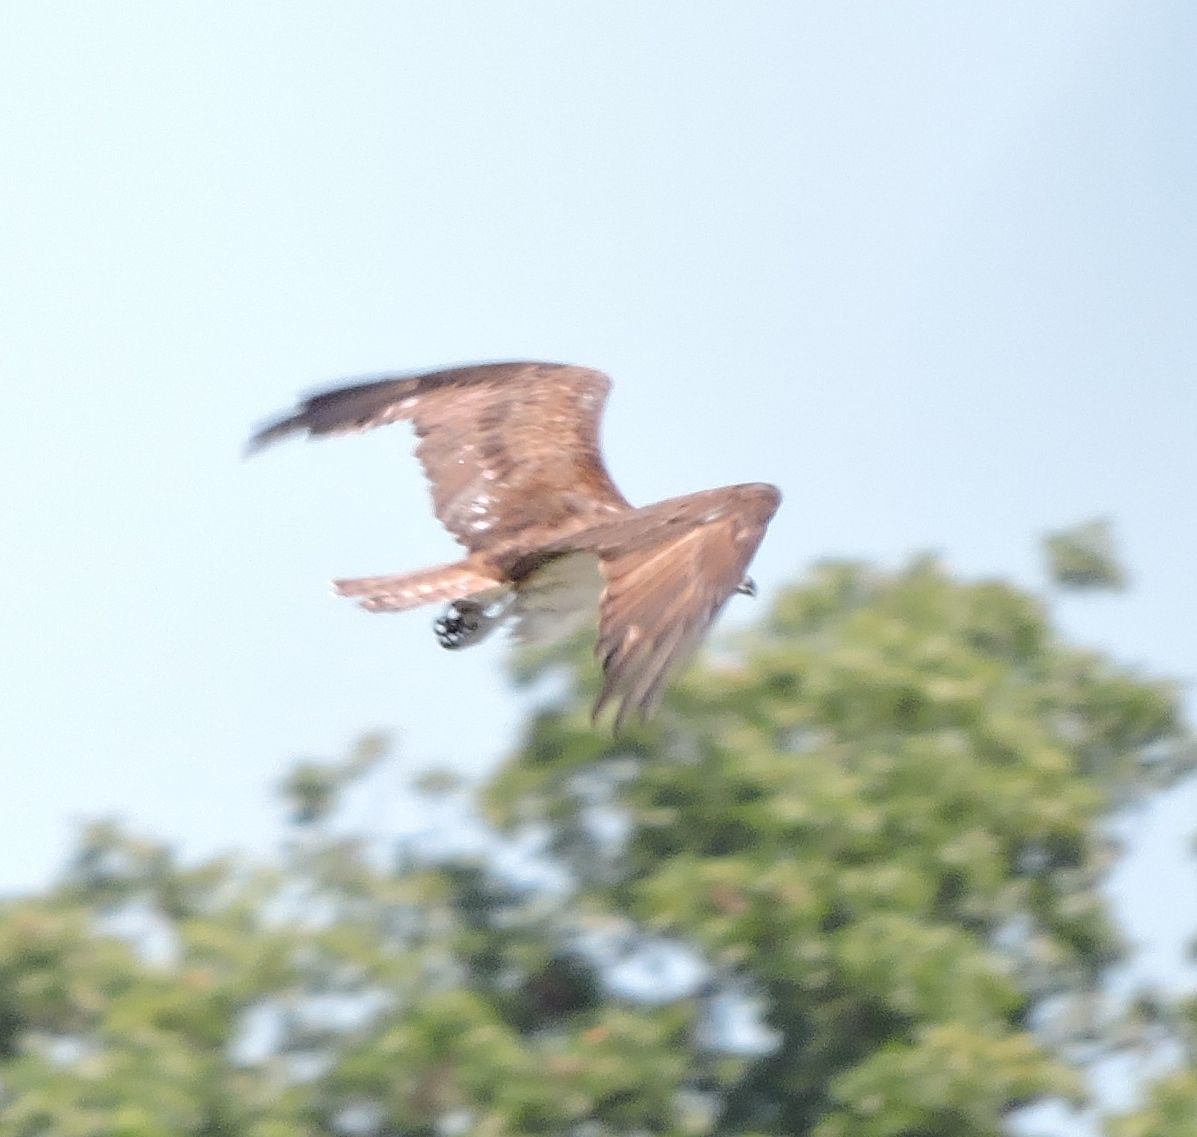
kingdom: Animalia
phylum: Chordata
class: Aves
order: Accipitriformes
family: Pandionidae
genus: Pandion
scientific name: Pandion haliaetus
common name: Osprey
